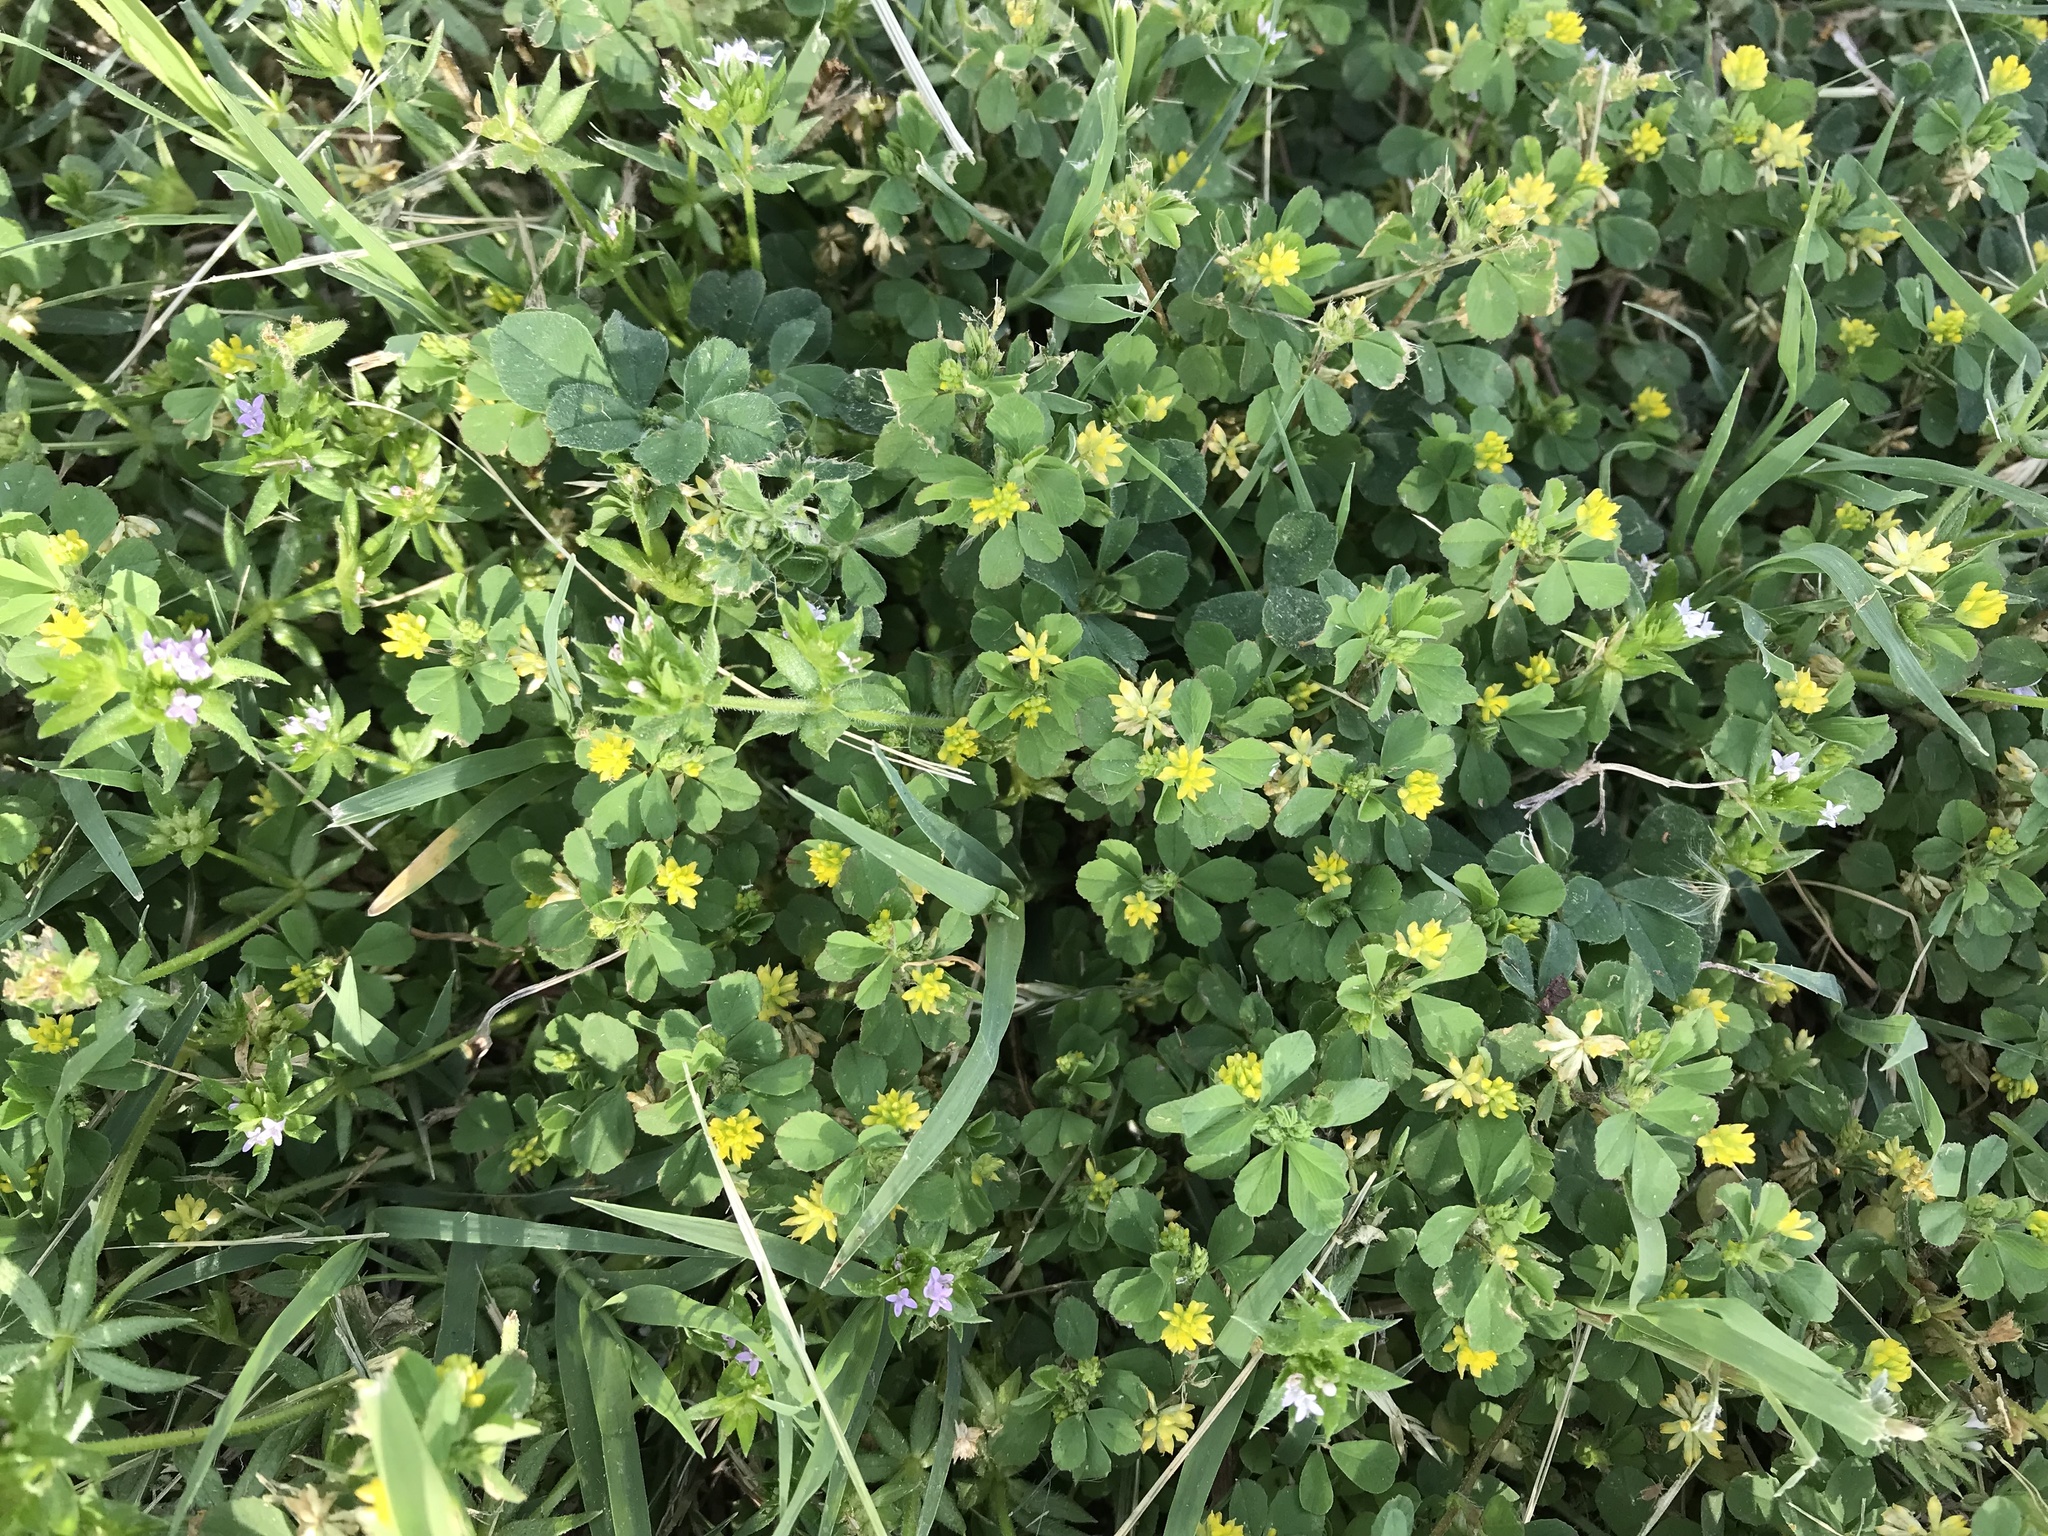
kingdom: Plantae
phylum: Tracheophyta
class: Magnoliopsida
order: Fabales
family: Fabaceae
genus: Trifolium
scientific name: Trifolium dubium
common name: Suckling clover
